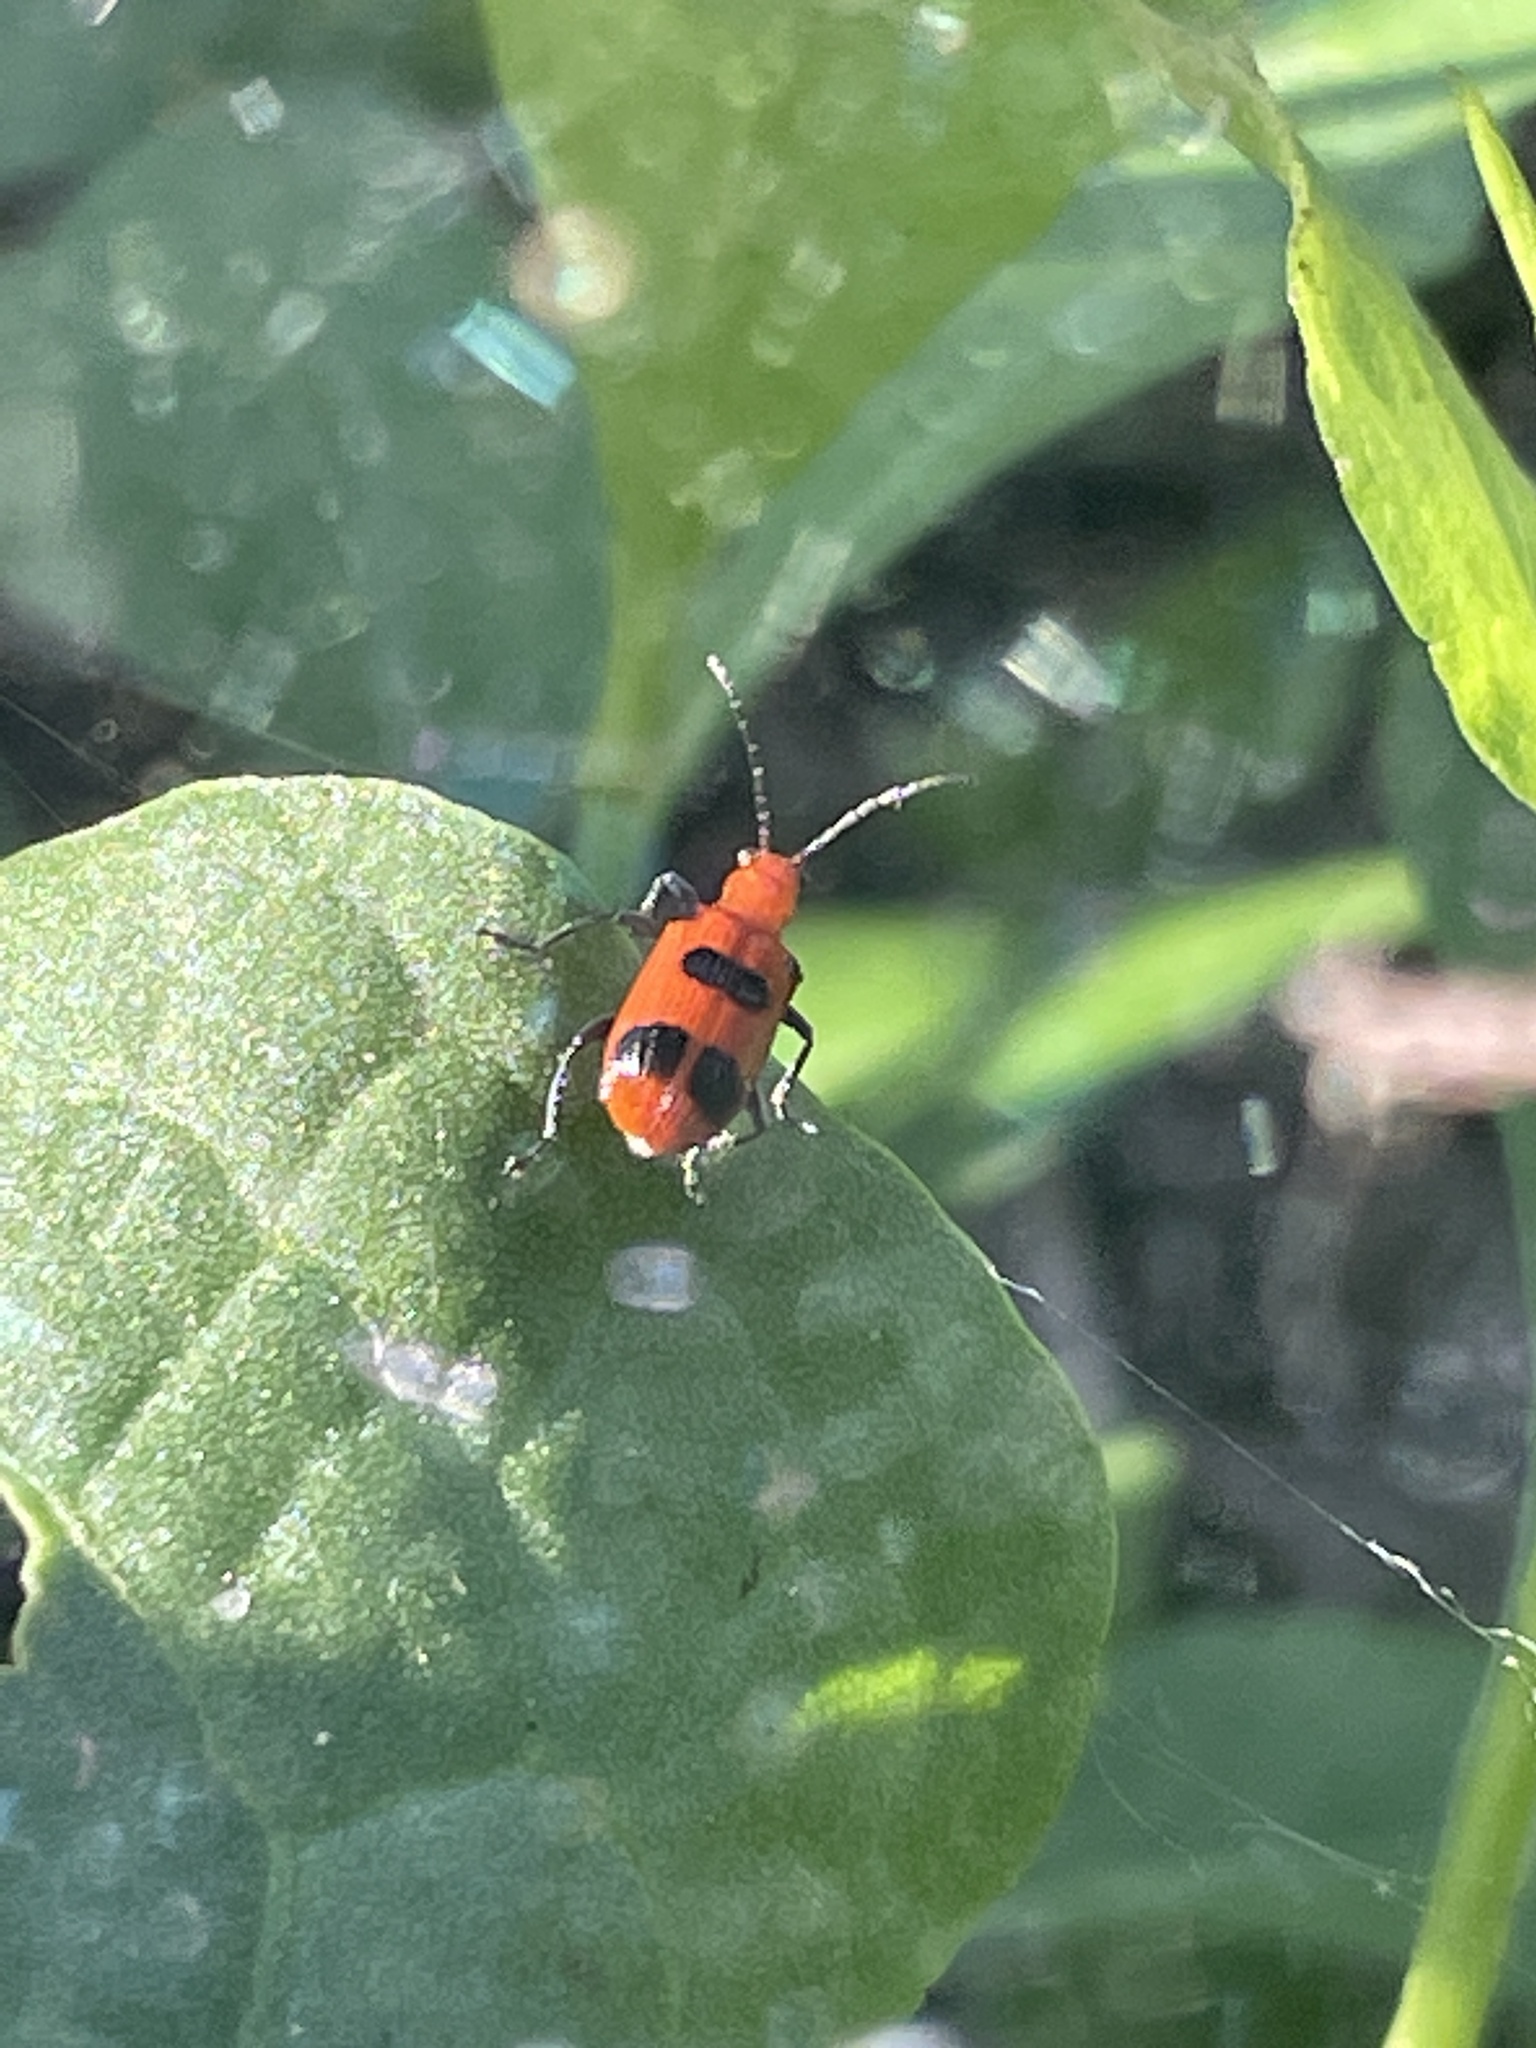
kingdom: Animalia
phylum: Arthropoda
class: Insecta
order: Coleoptera
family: Chrysomelidae
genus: Neolema
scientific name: Neolema sexpunctata
